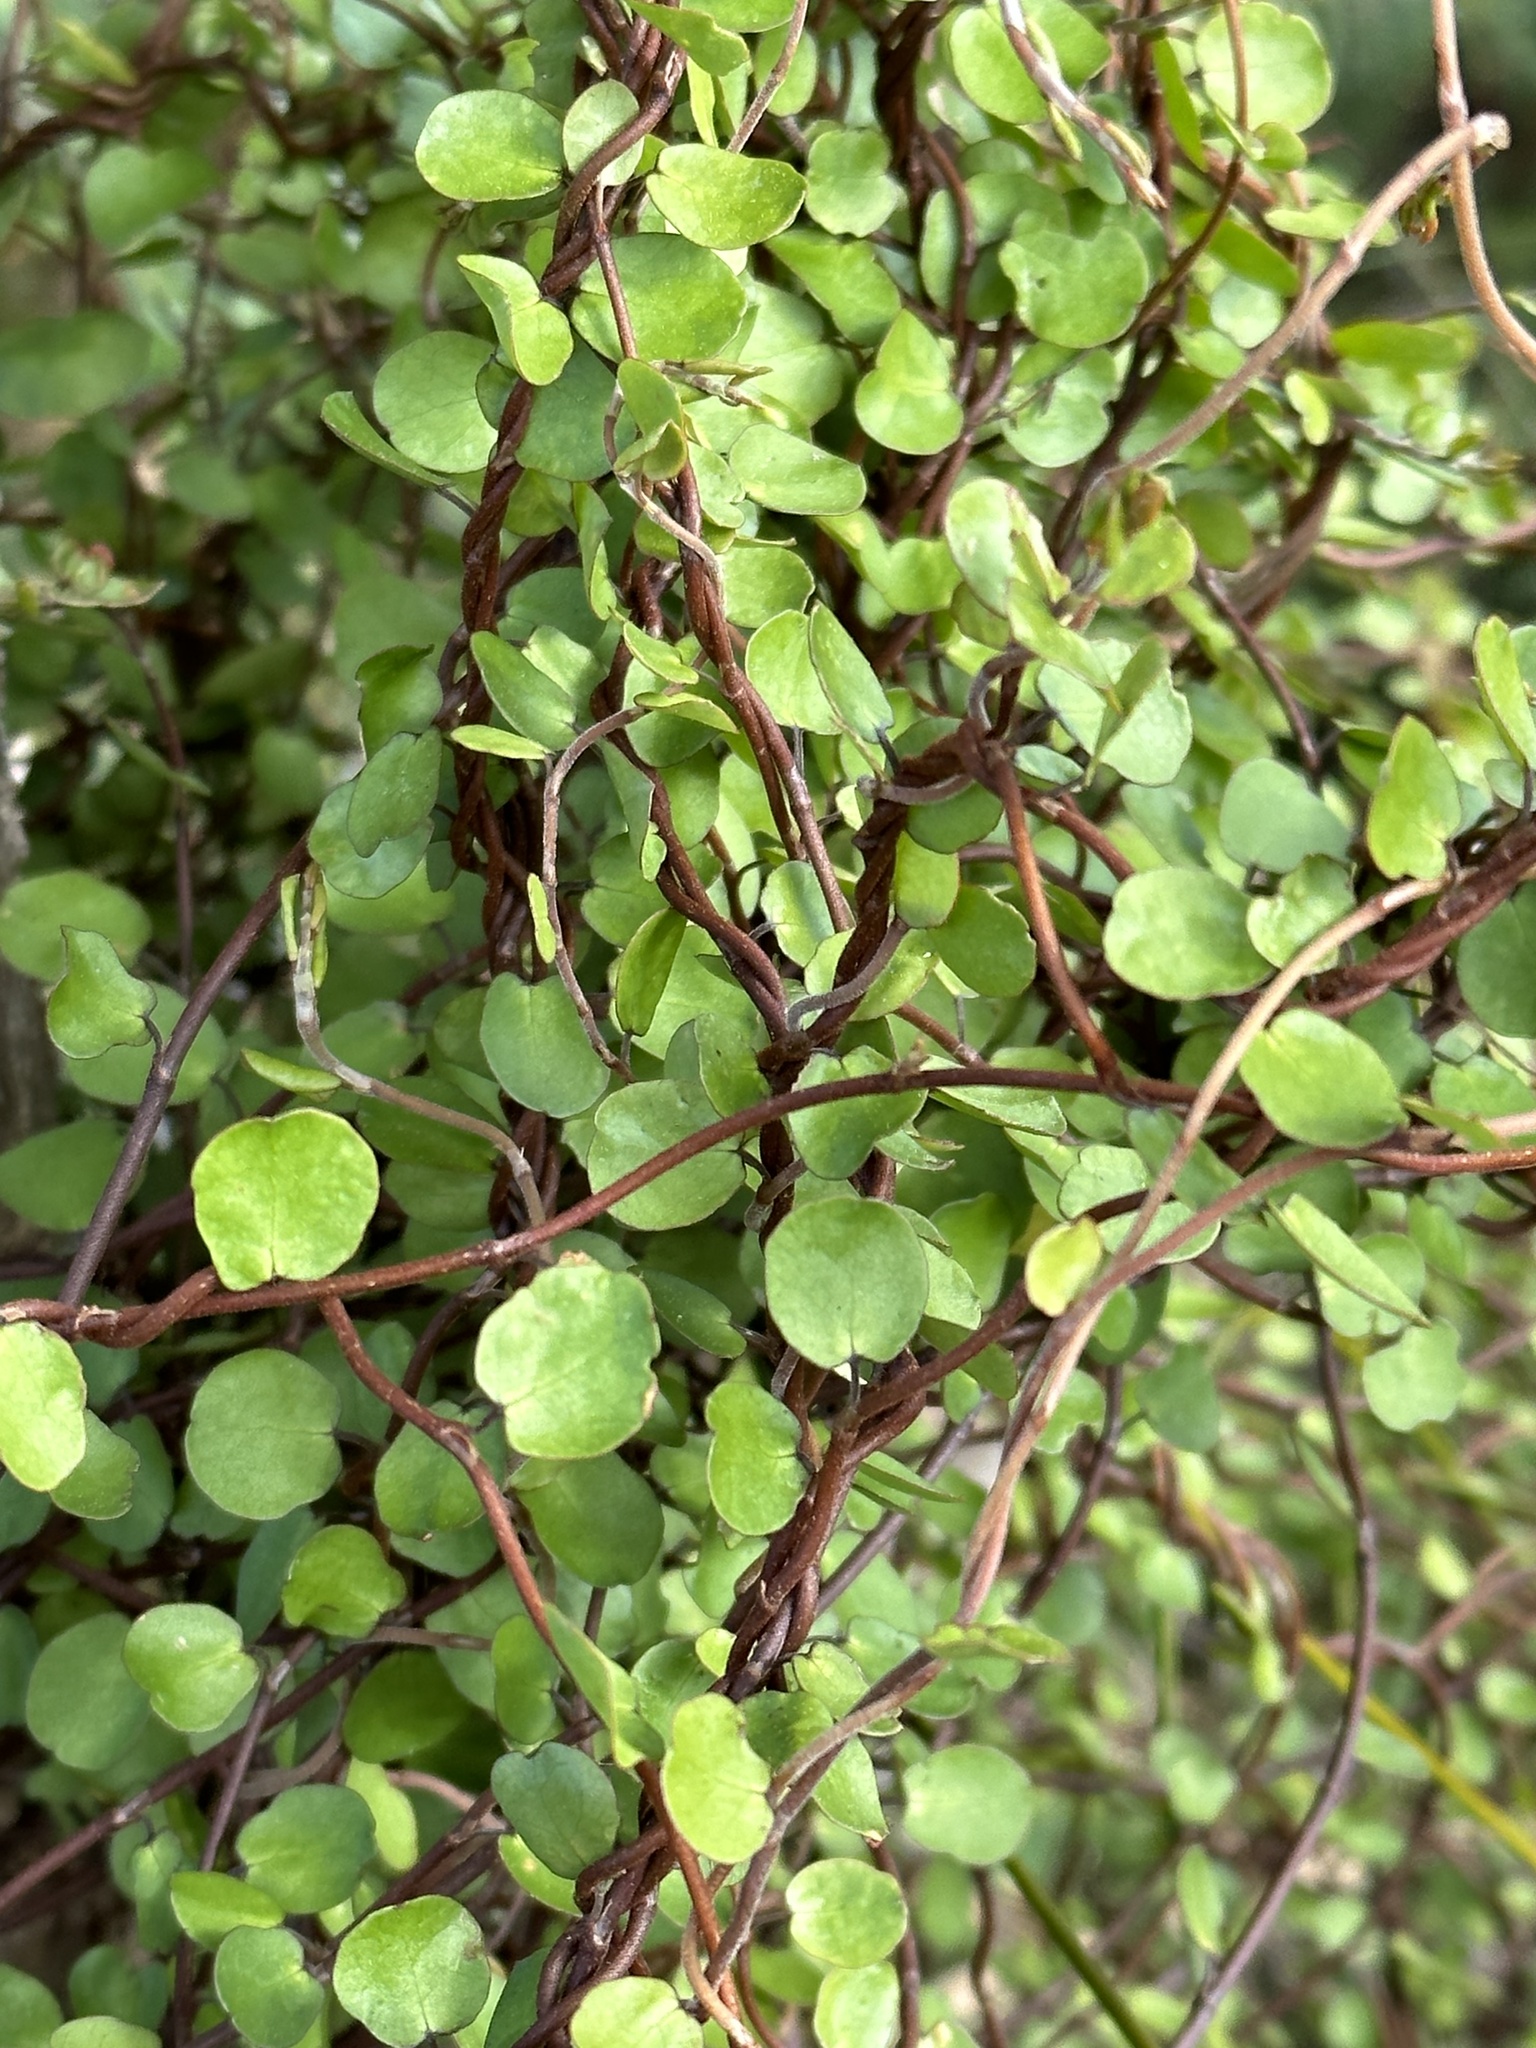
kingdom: Plantae
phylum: Tracheophyta
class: Magnoliopsida
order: Caryophyllales
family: Polygonaceae
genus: Muehlenbeckia
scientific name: Muehlenbeckia complexa
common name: Wireplant
